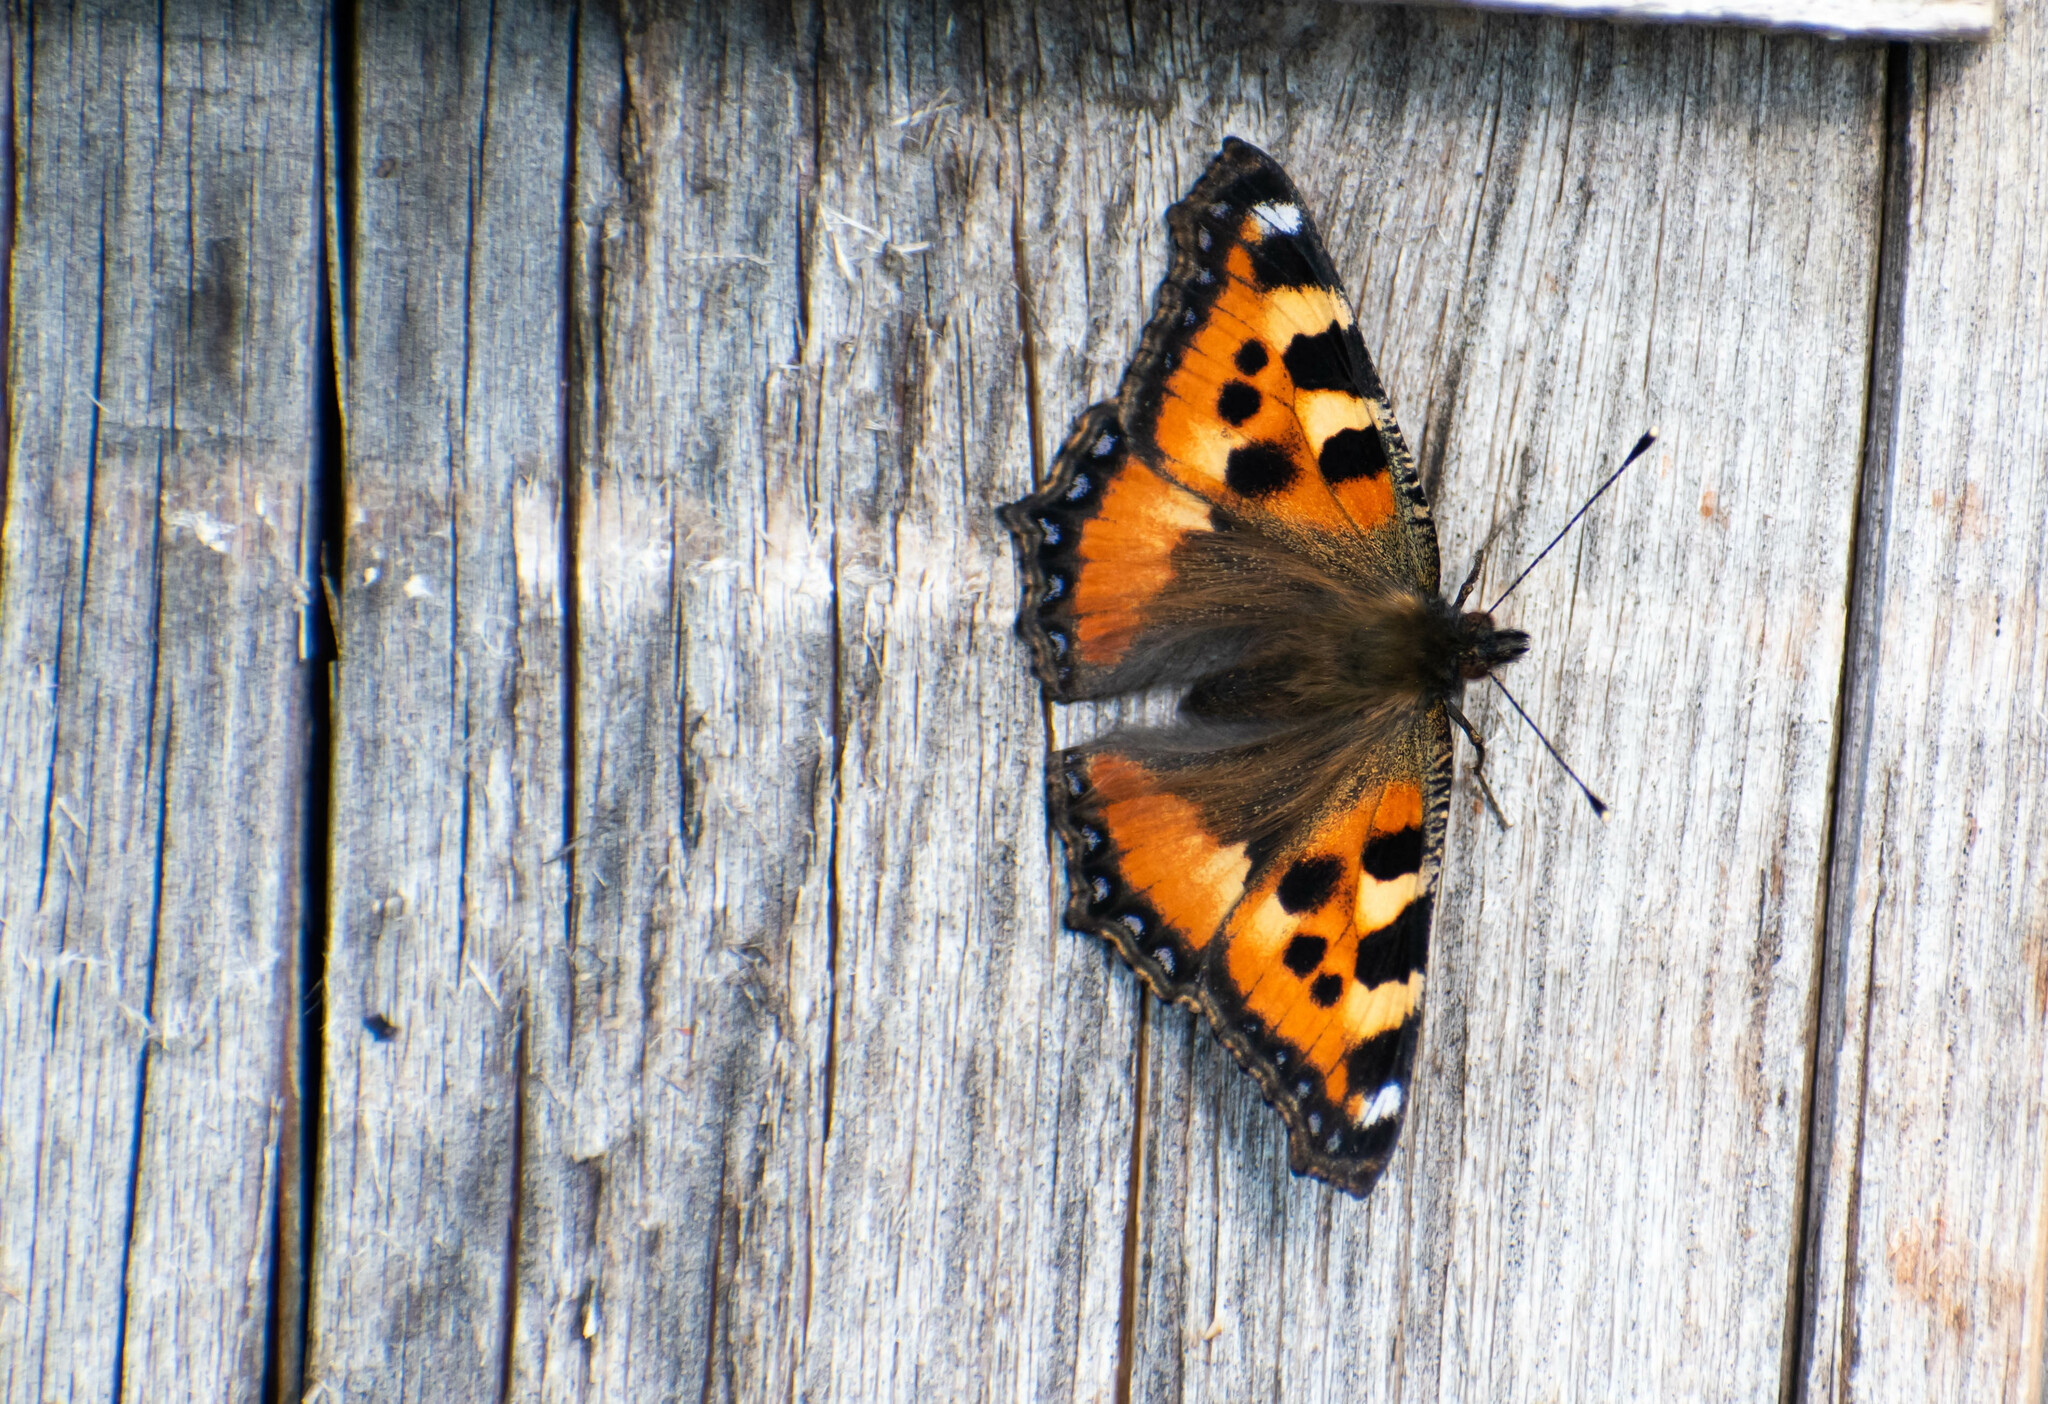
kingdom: Animalia
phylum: Arthropoda
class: Insecta
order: Lepidoptera
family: Nymphalidae
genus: Aglais
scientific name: Aglais urticae
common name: Small tortoiseshell
